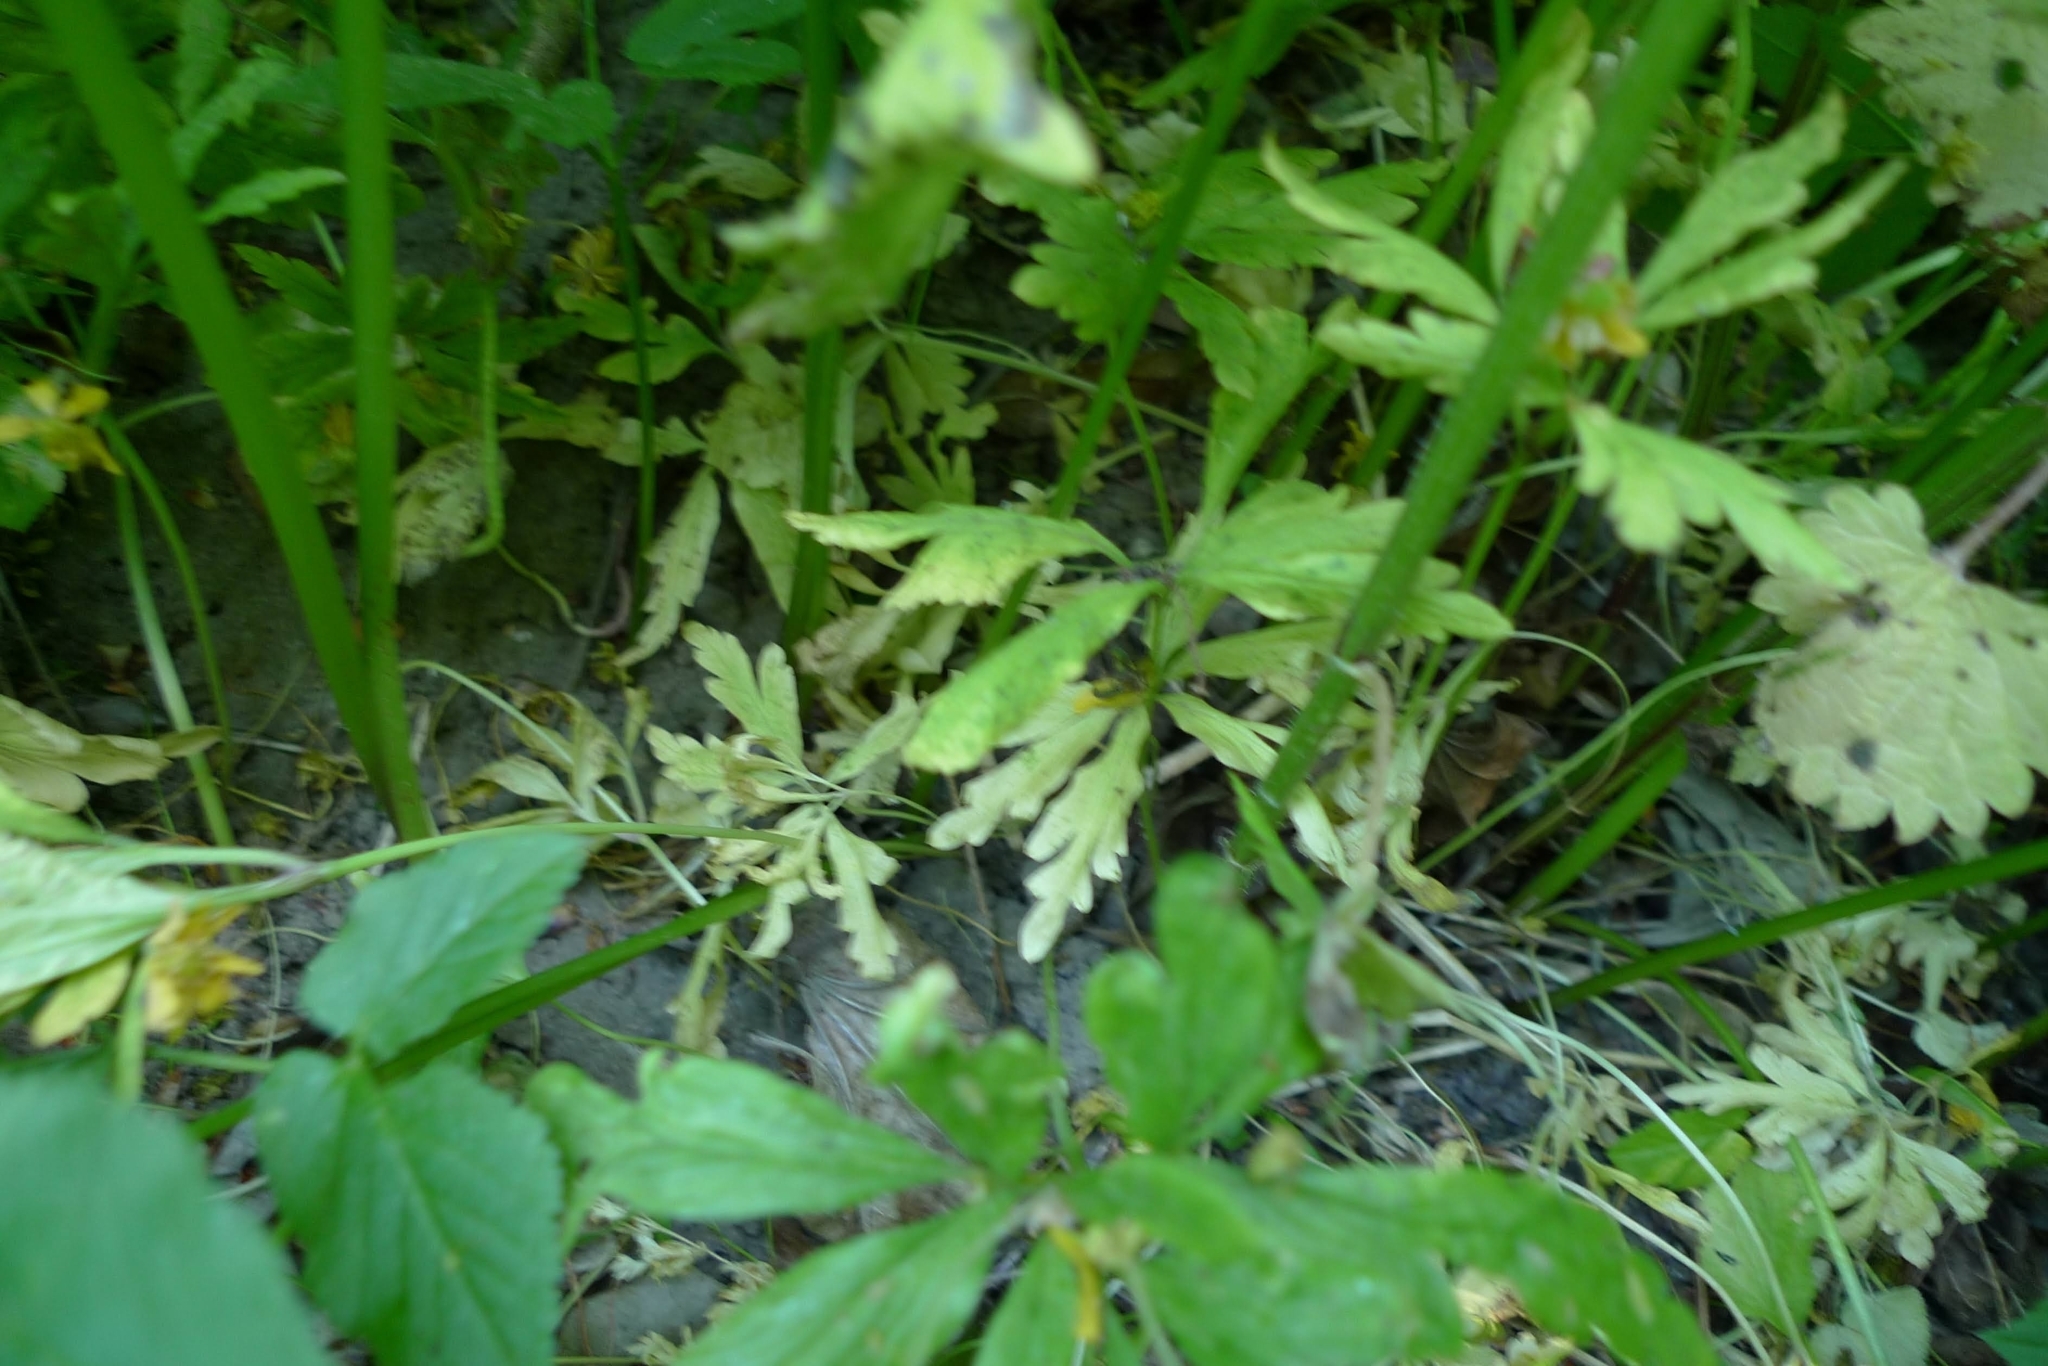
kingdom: Plantae
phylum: Tracheophyta
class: Magnoliopsida
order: Ranunculales
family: Ranunculaceae
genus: Anemone
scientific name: Anemone ranunculoides
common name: Yellow anemone
